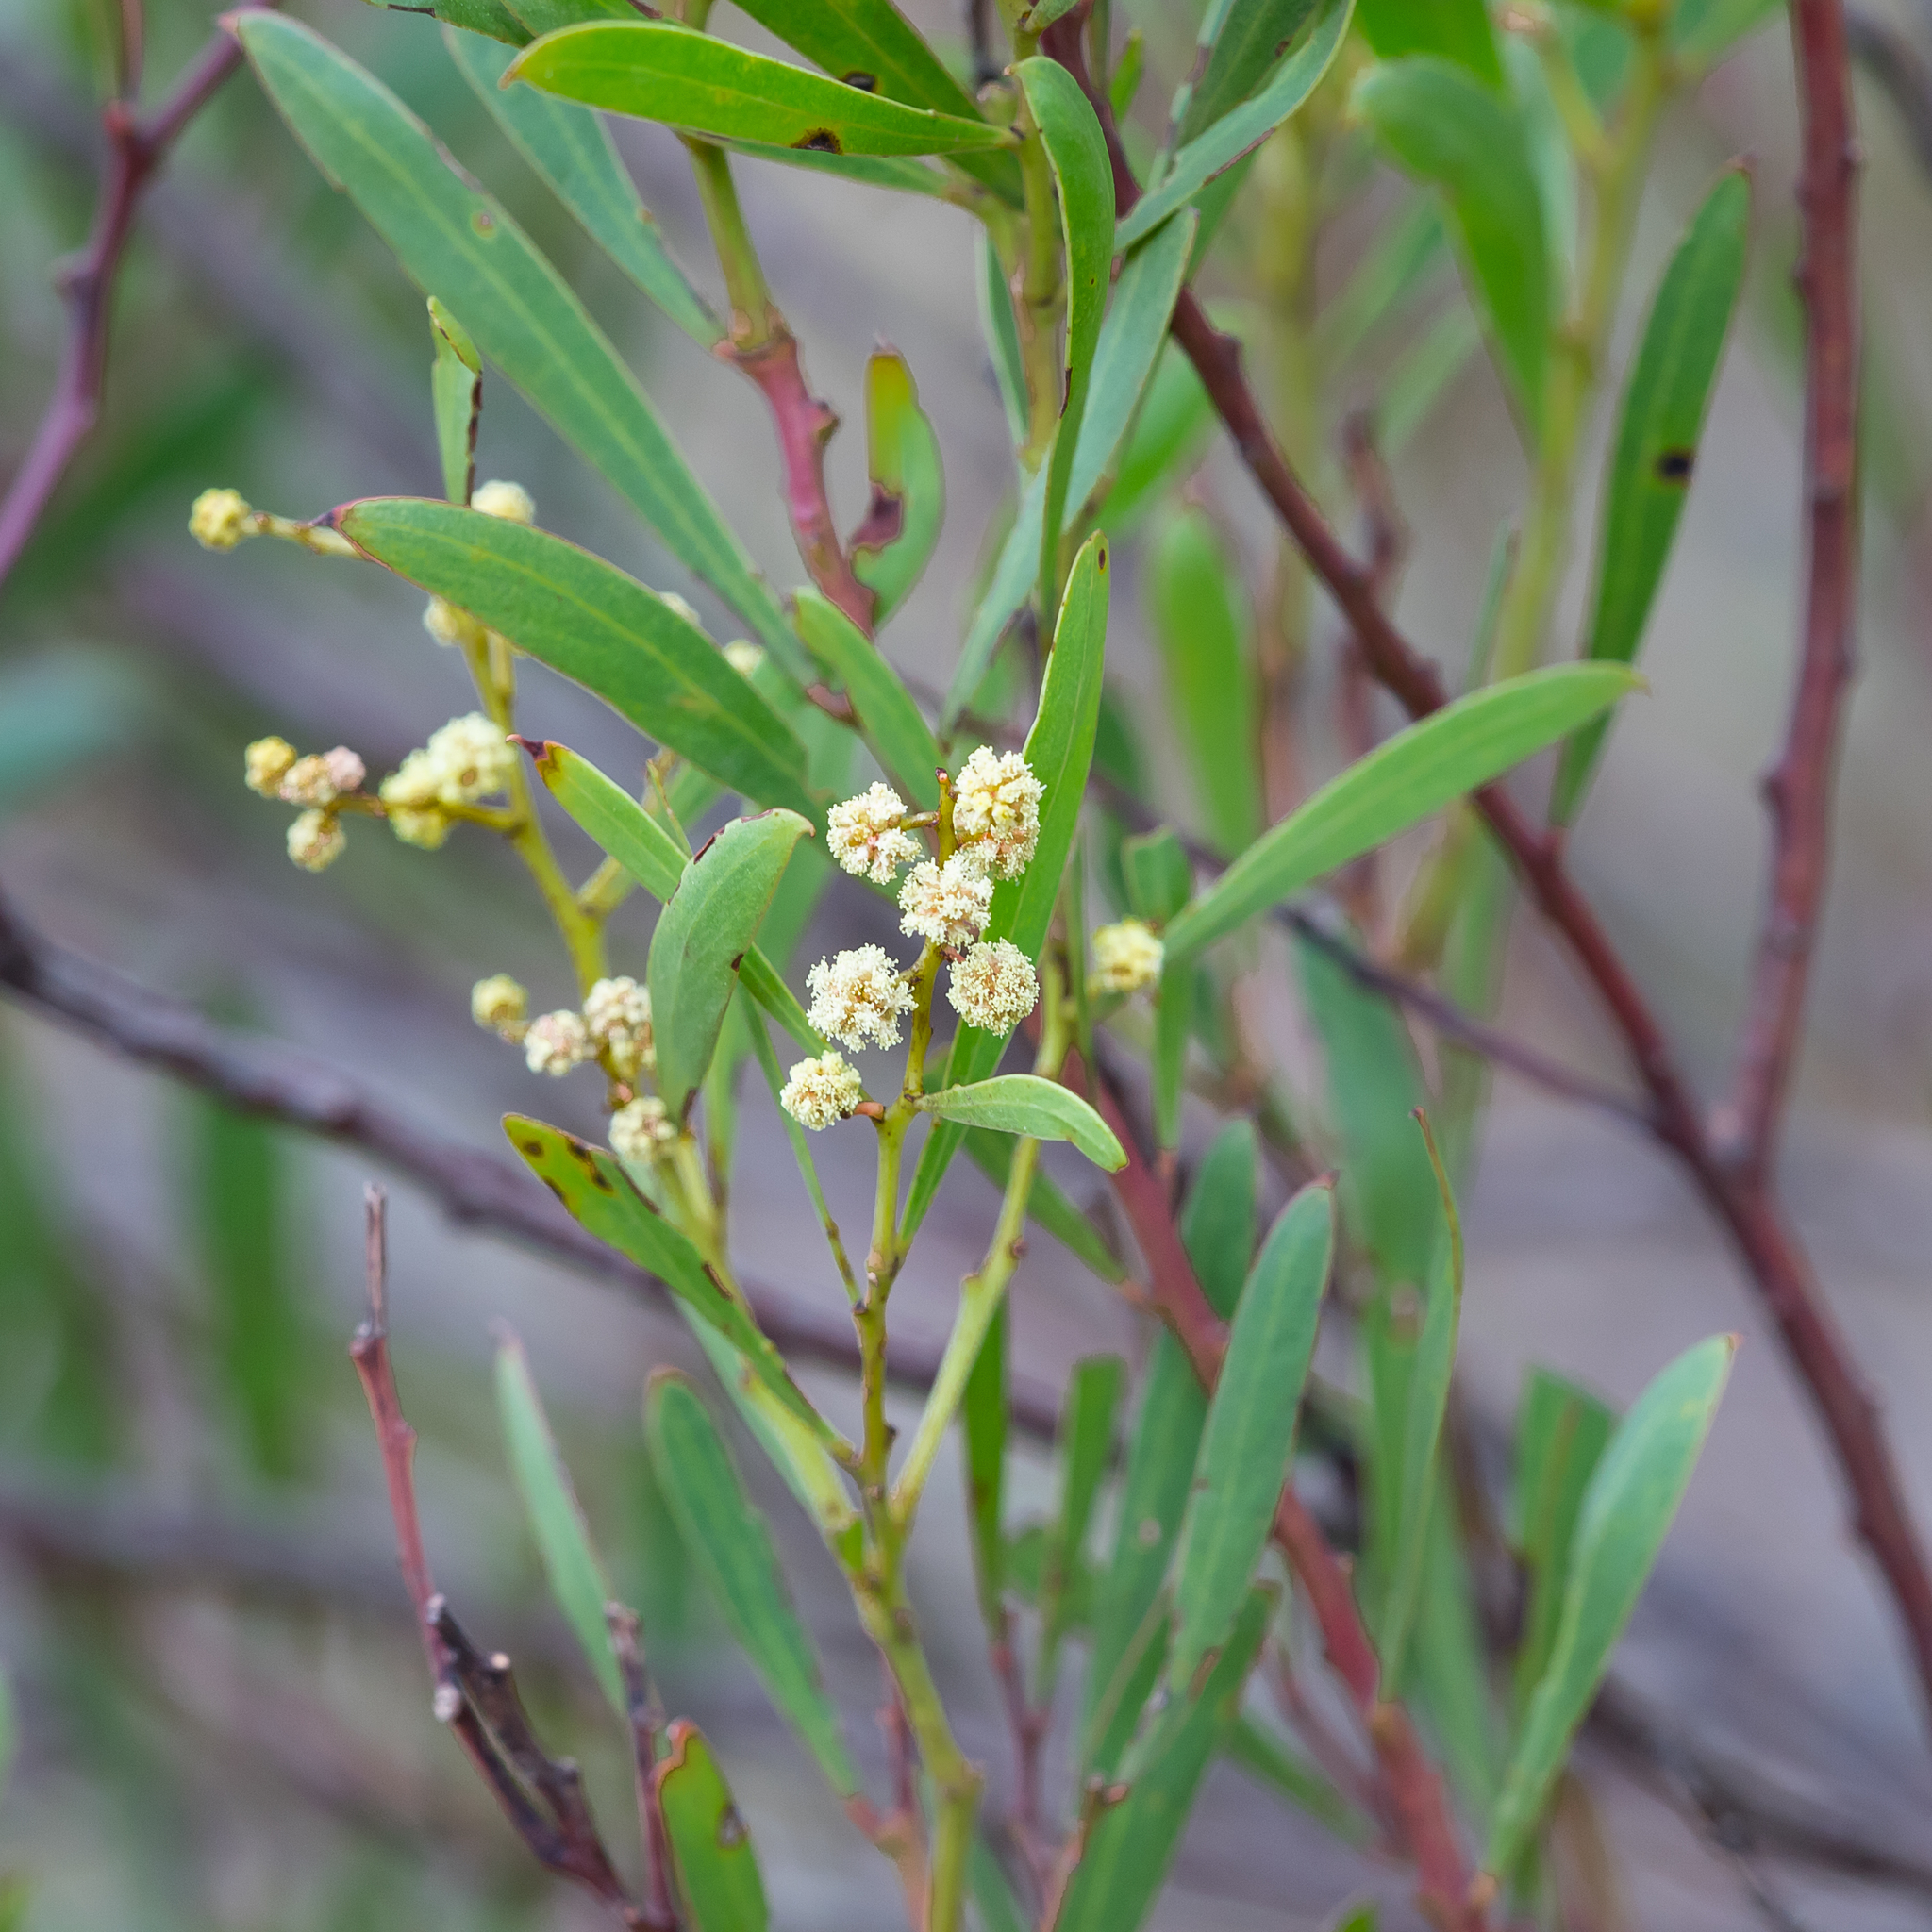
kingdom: Plantae
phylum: Tracheophyta
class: Magnoliopsida
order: Fabales
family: Fabaceae
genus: Acacia
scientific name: Acacia uncifolia
